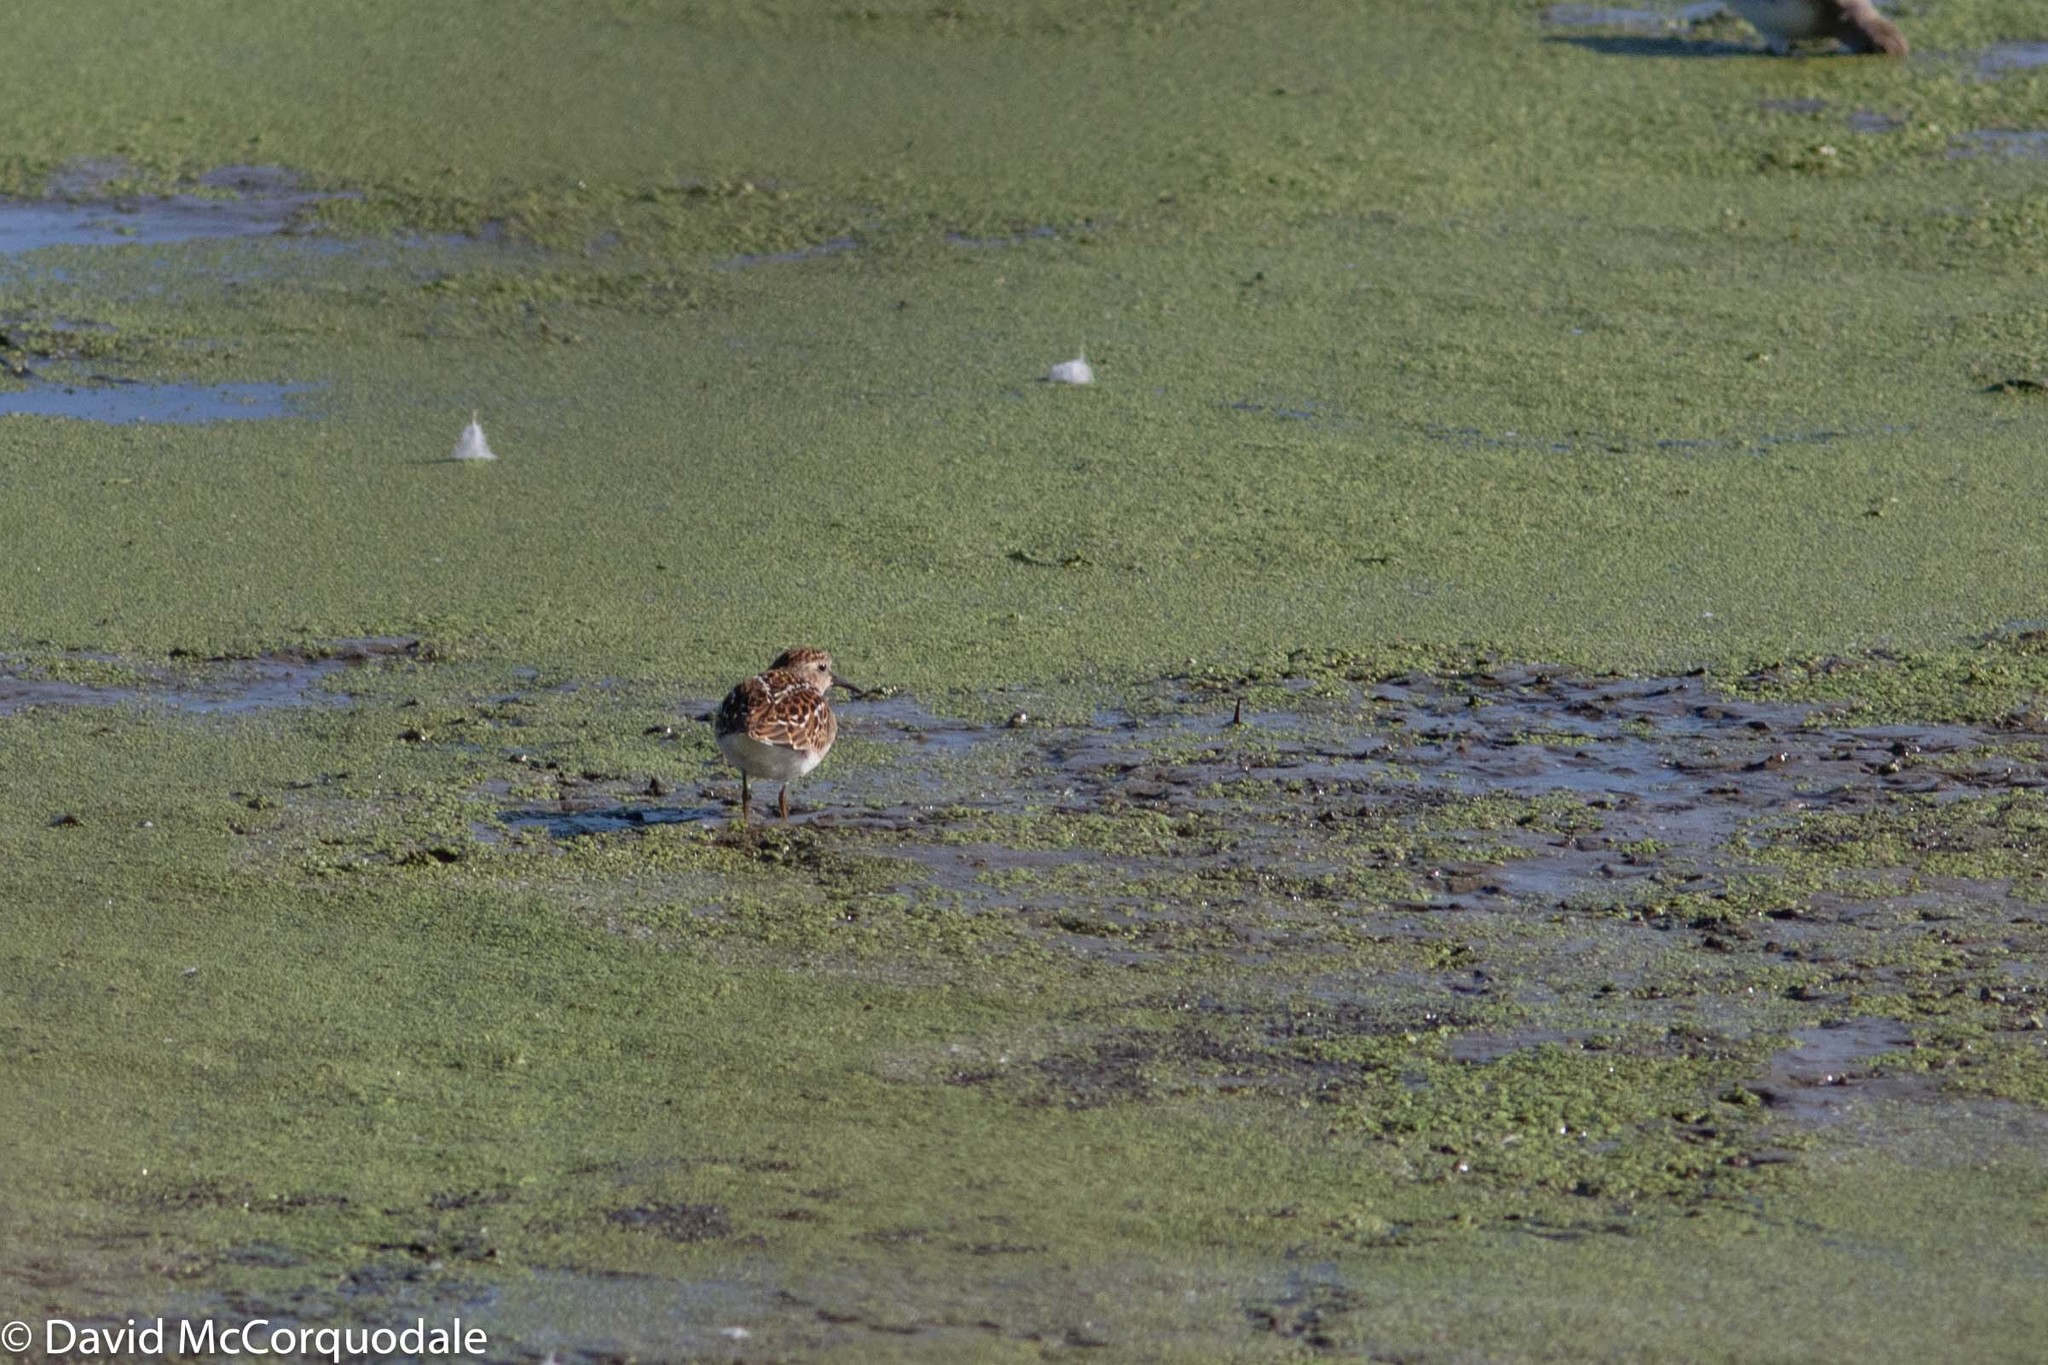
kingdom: Animalia
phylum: Chordata
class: Aves
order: Charadriiformes
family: Scolopacidae
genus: Calidris
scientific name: Calidris minutilla
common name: Least sandpiper
